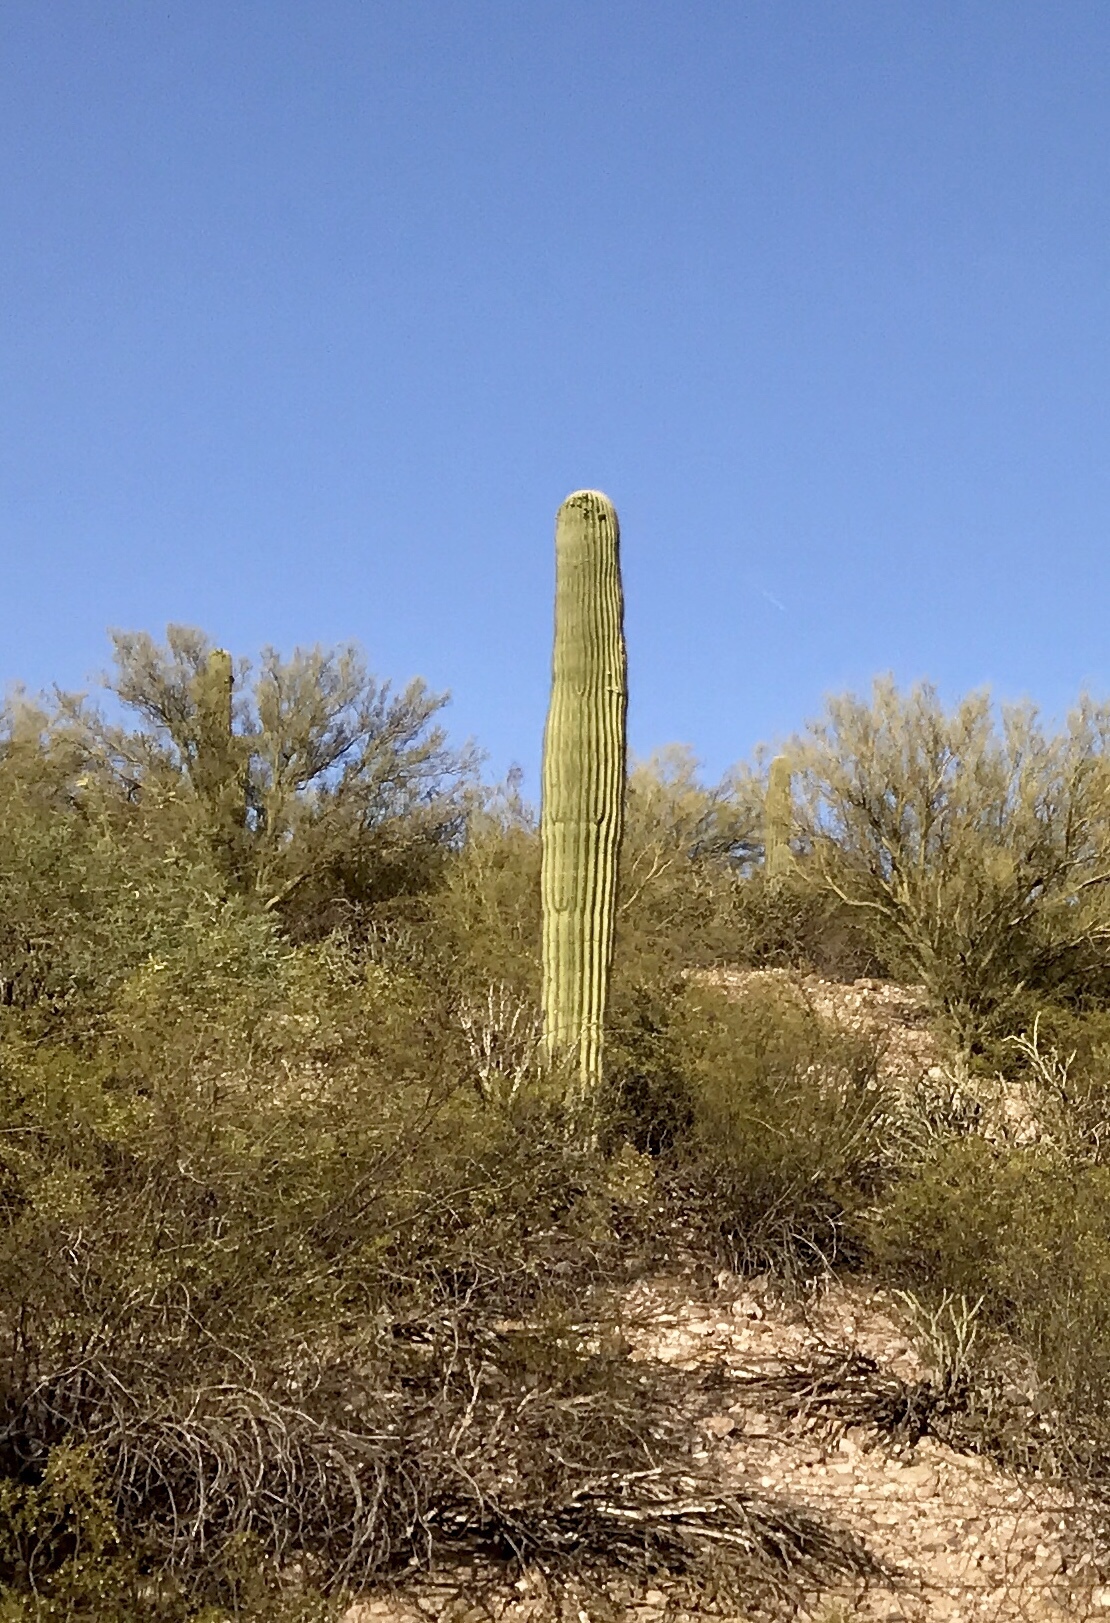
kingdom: Plantae
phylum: Tracheophyta
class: Magnoliopsida
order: Caryophyllales
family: Cactaceae
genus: Carnegiea
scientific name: Carnegiea gigantea
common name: Saguaro
